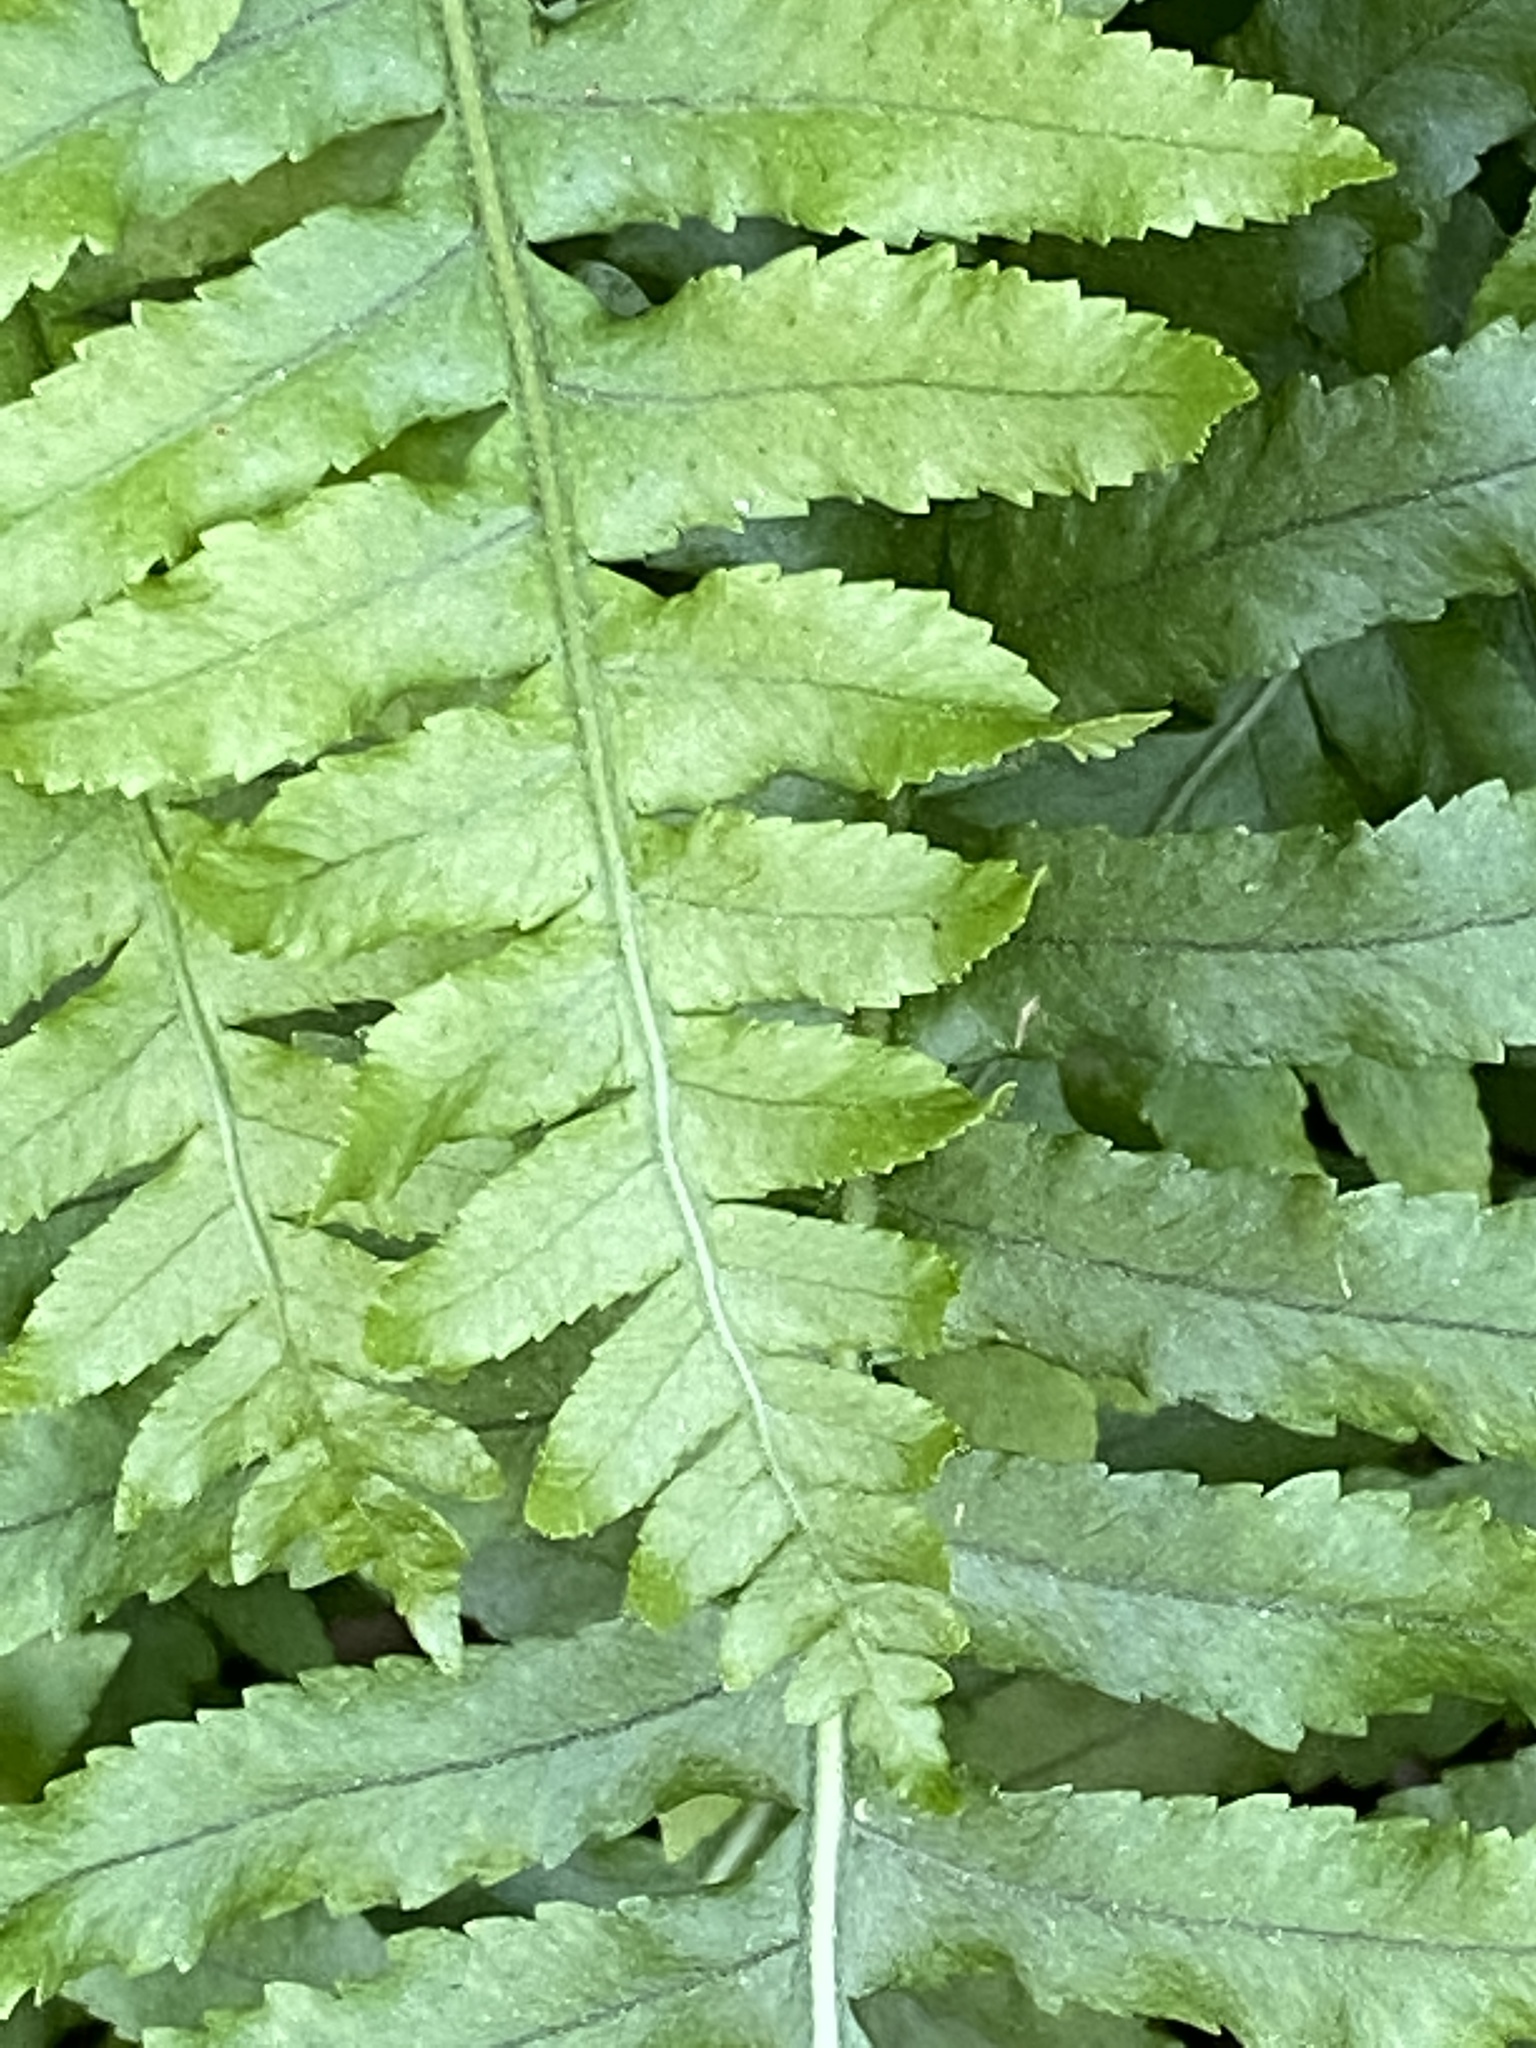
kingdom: Plantae
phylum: Tracheophyta
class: Polypodiopsida
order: Polypodiales
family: Polypodiaceae
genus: Polypodium
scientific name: Polypodium californicum
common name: California polypody
